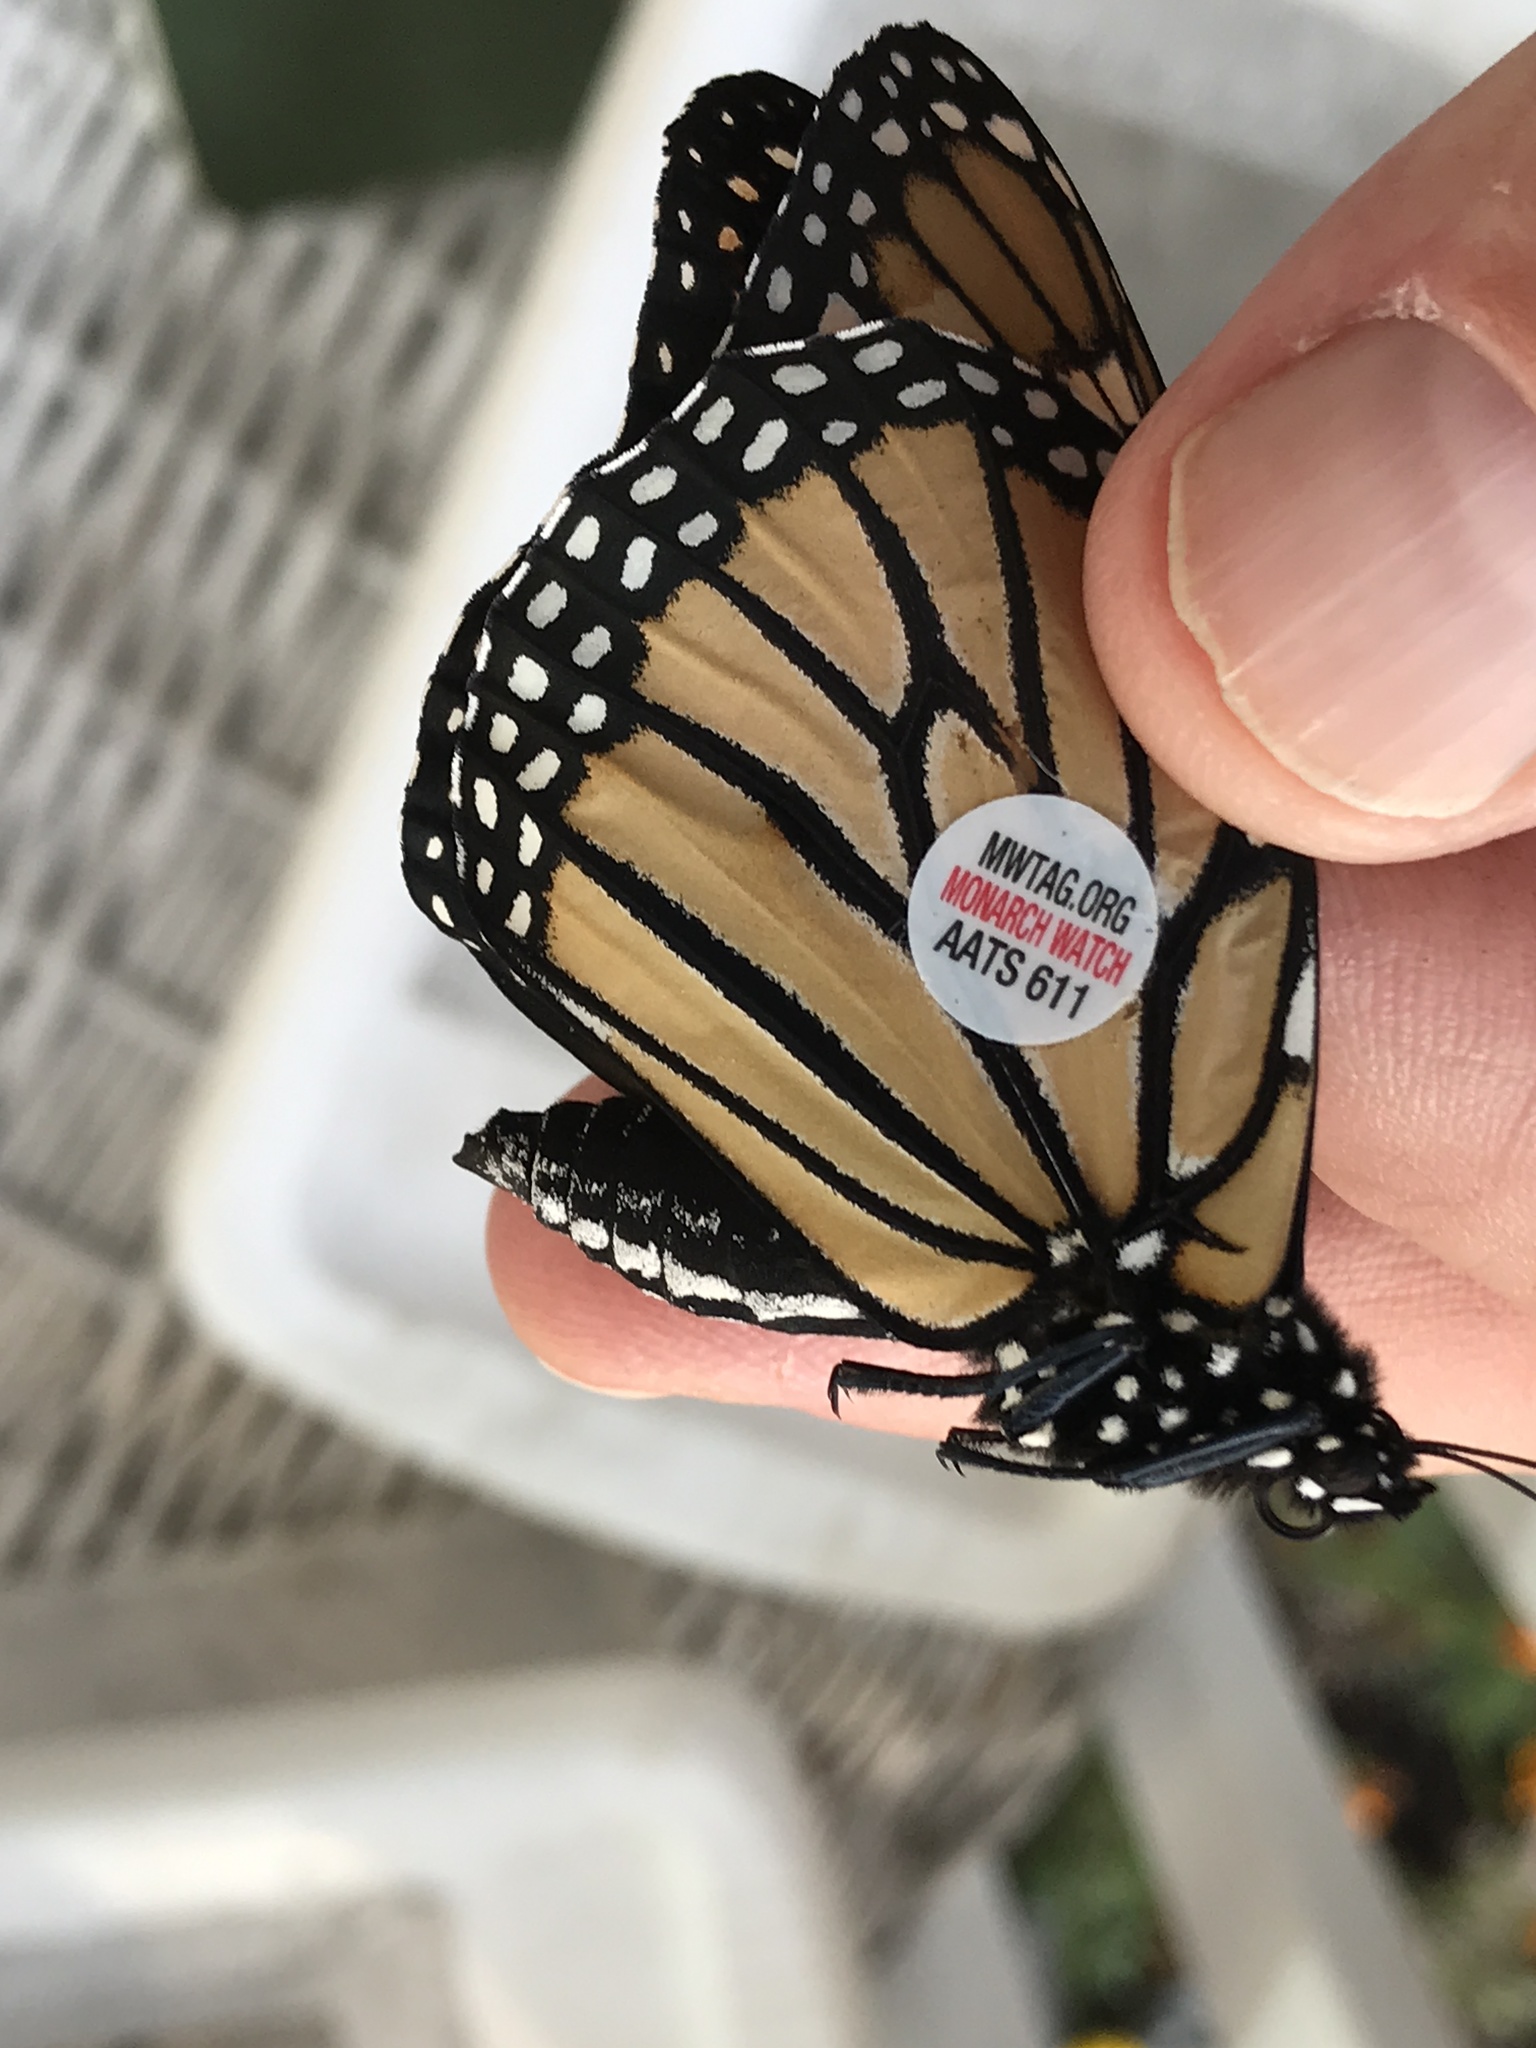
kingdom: Animalia
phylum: Arthropoda
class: Insecta
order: Lepidoptera
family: Nymphalidae
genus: Danaus
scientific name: Danaus plexippus
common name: Monarch
